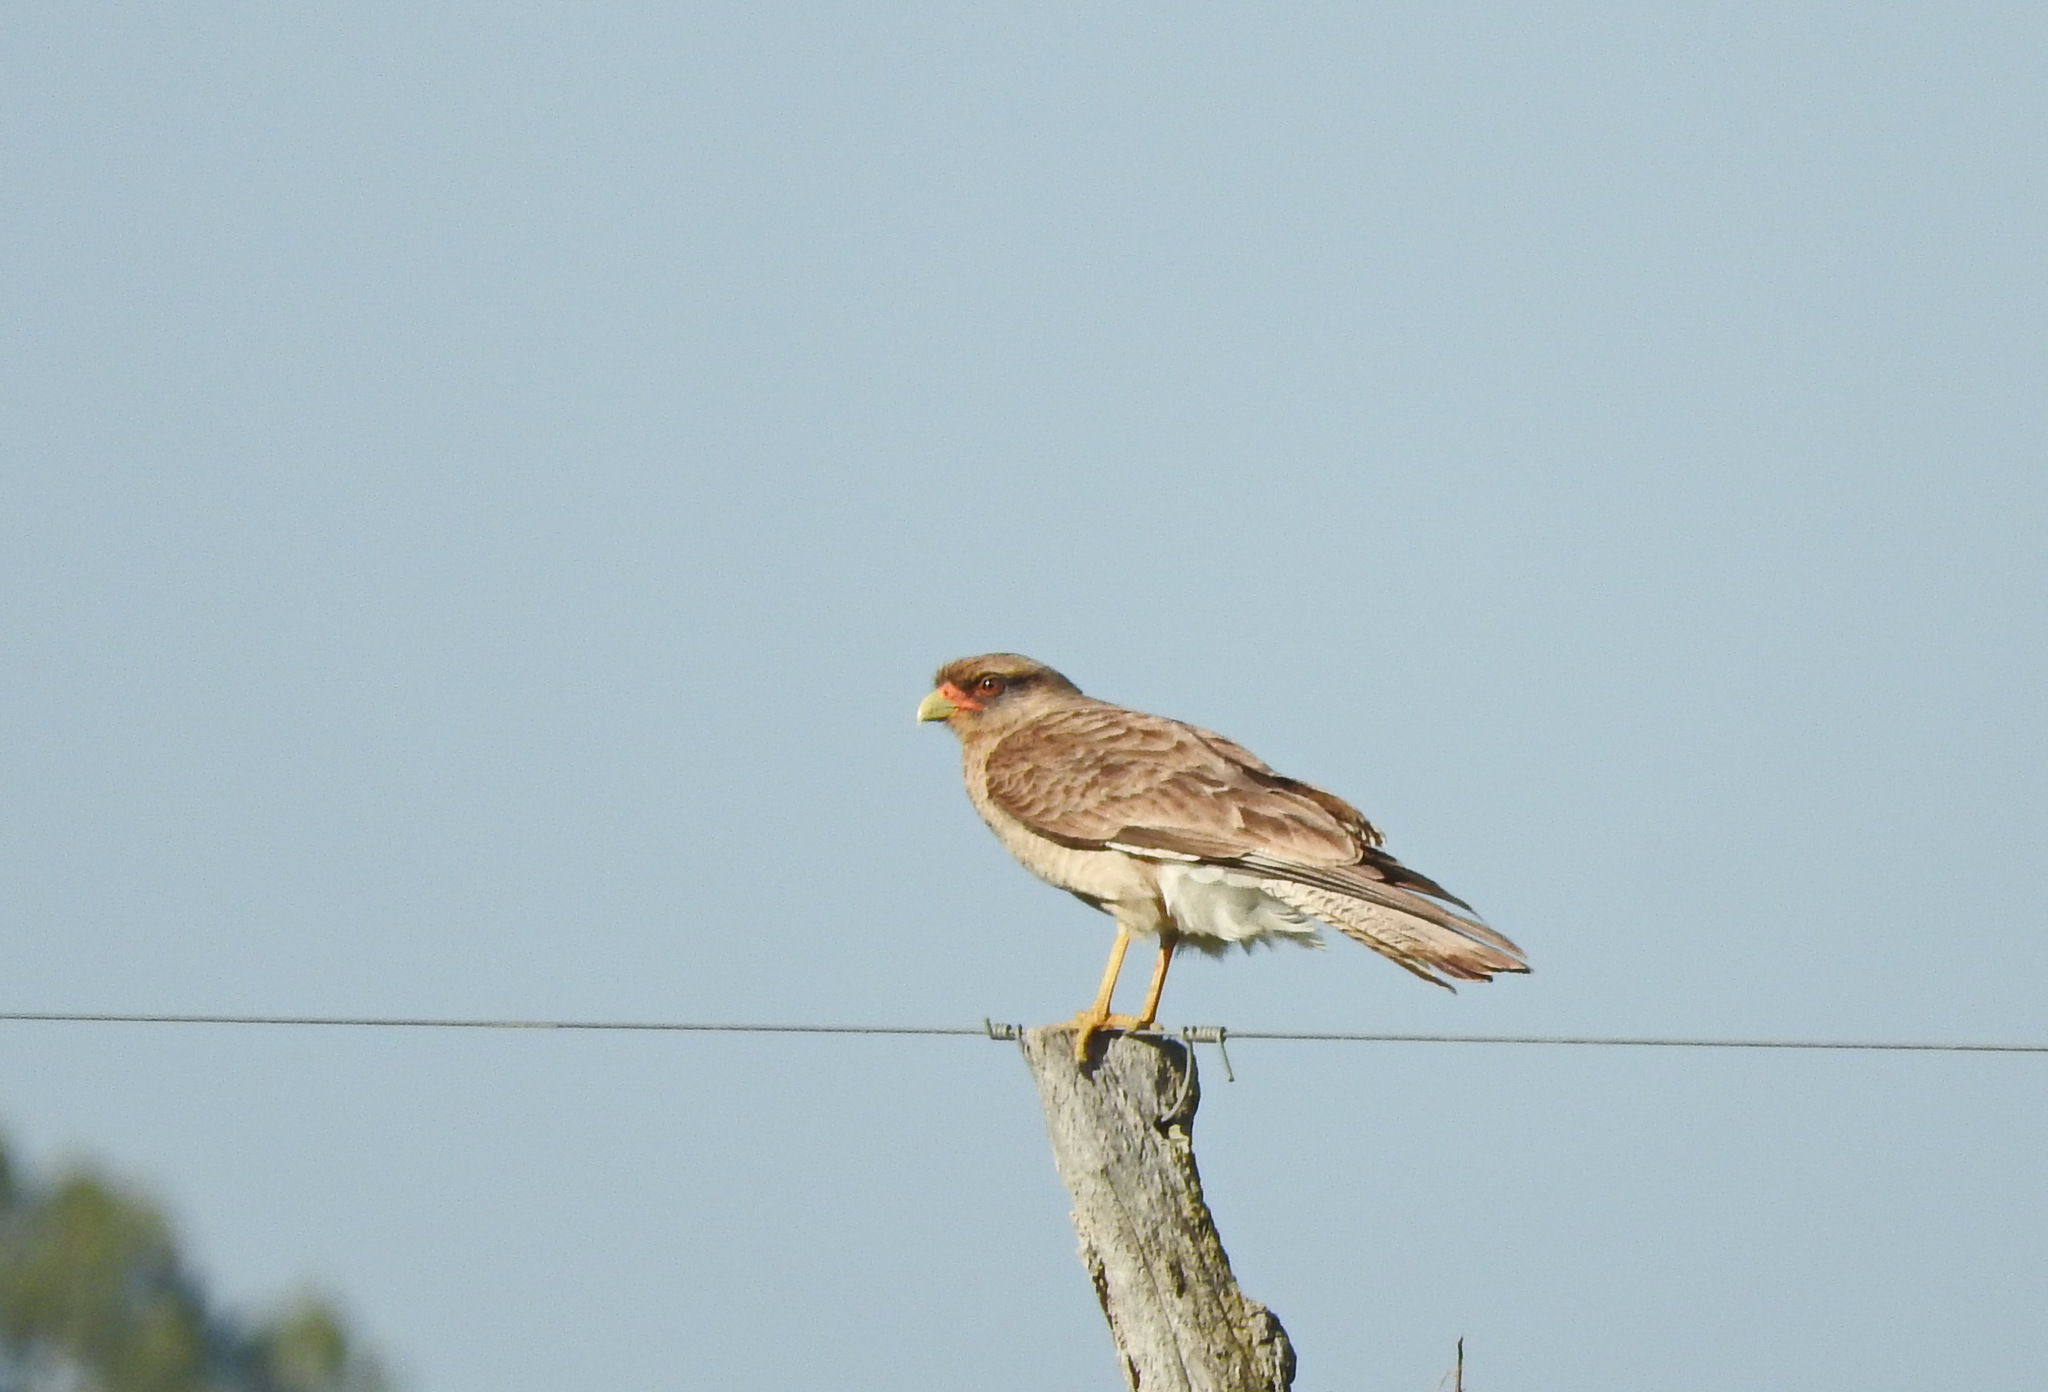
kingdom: Animalia
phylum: Chordata
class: Aves
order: Falconiformes
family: Falconidae
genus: Daptrius
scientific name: Daptrius
